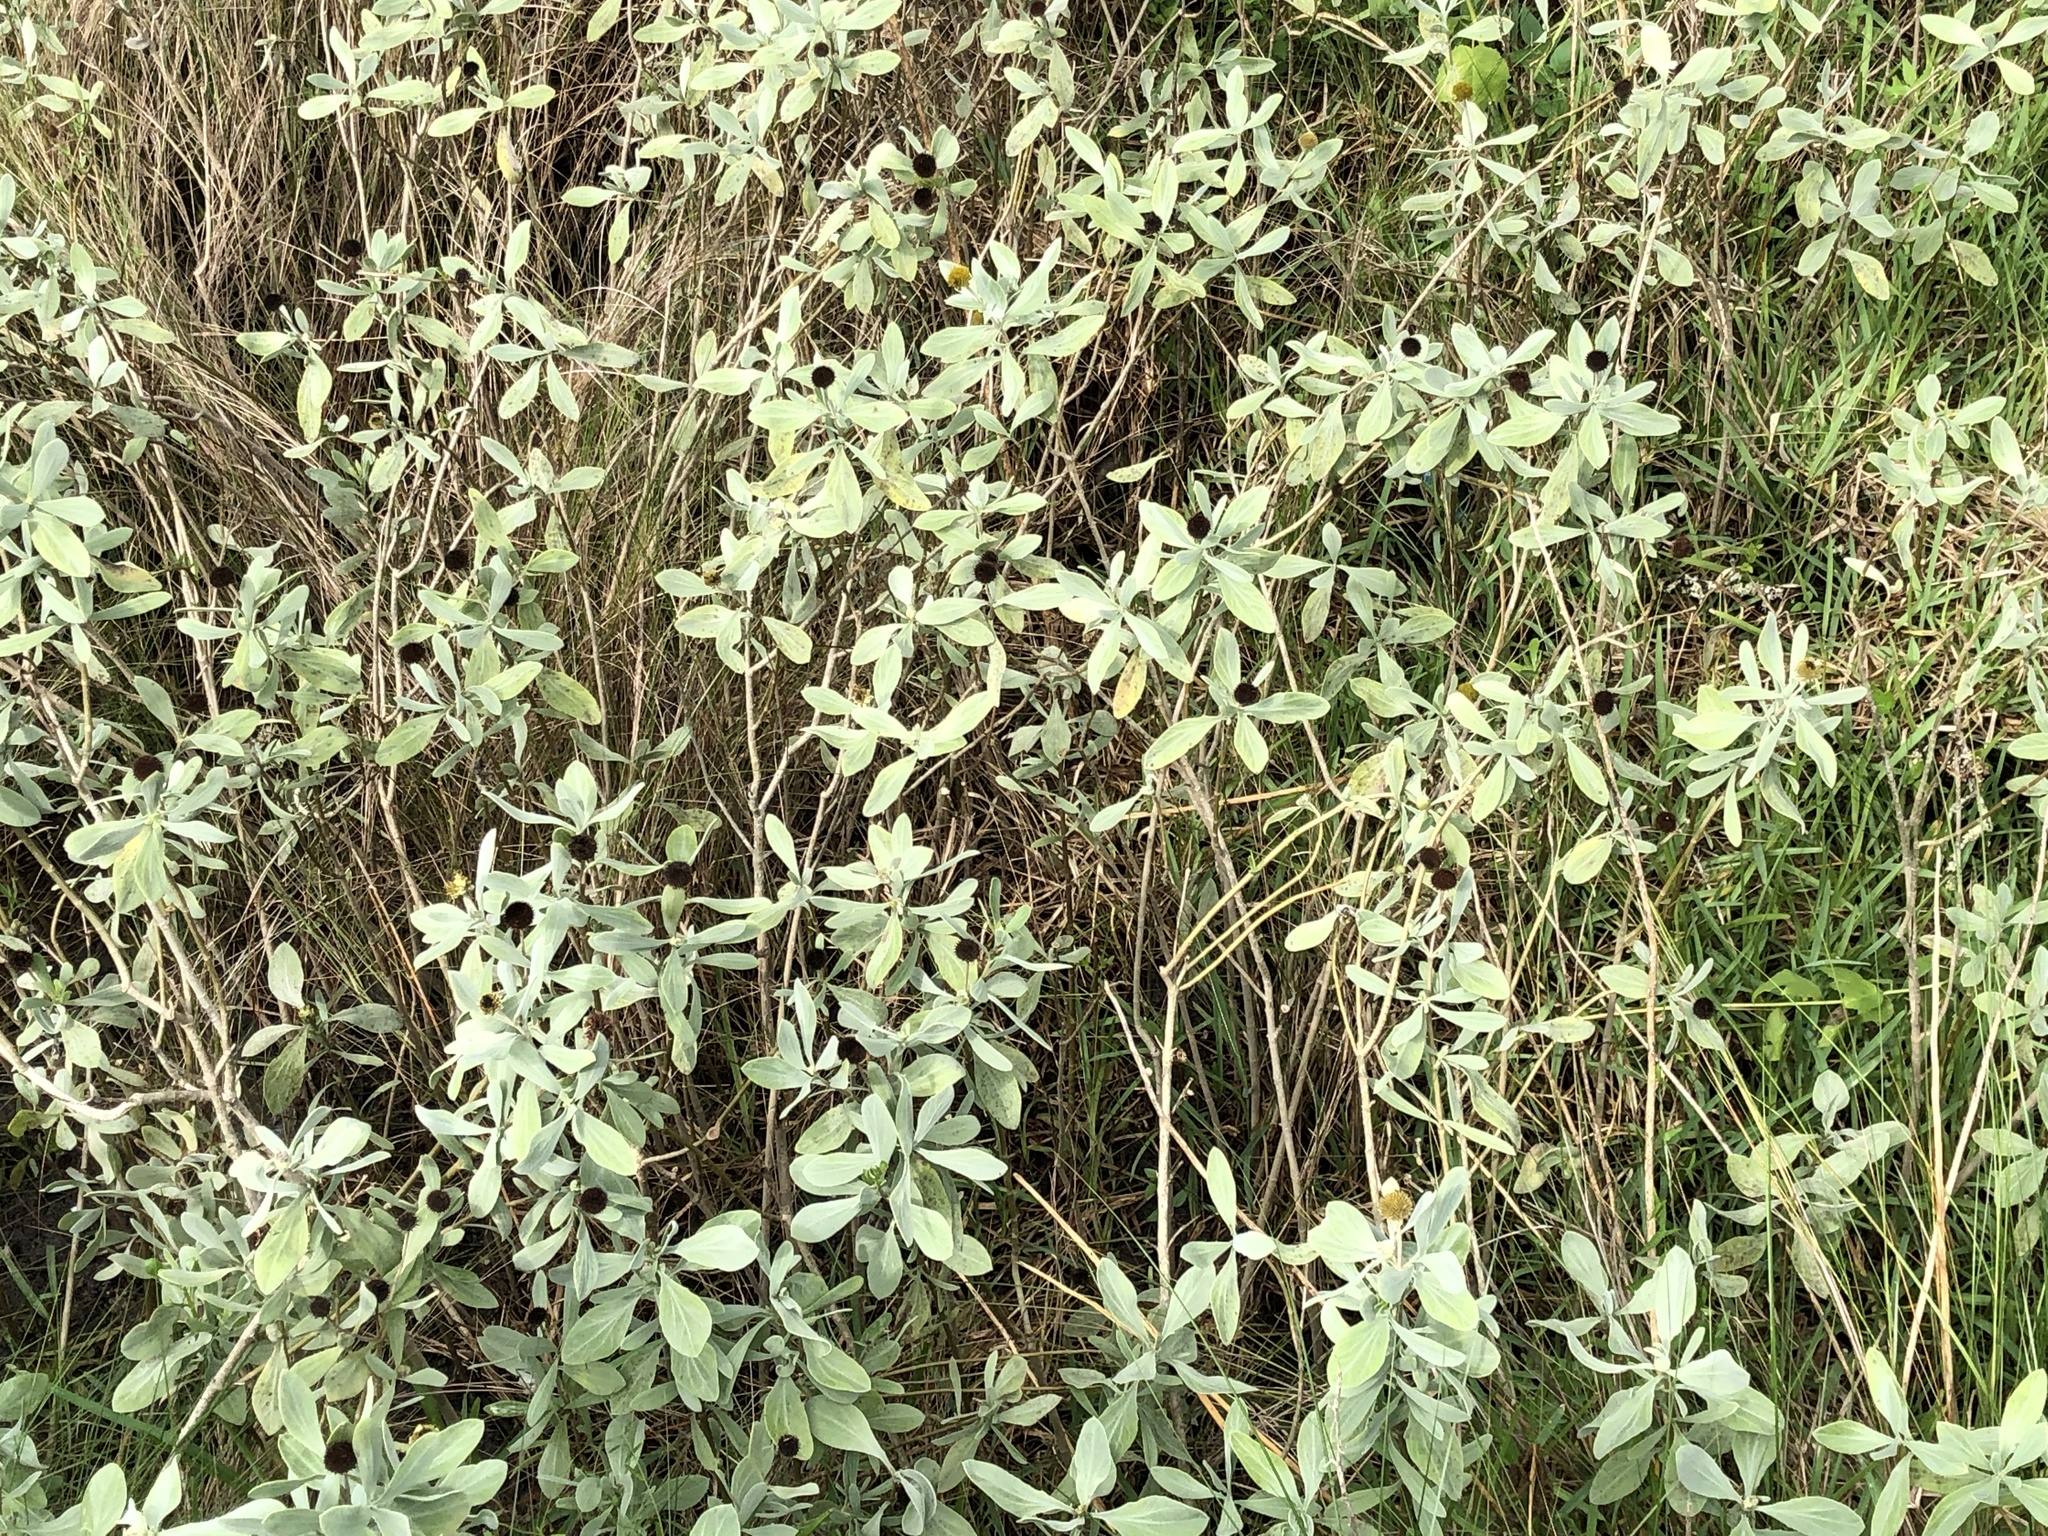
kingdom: Plantae
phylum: Tracheophyta
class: Magnoliopsida
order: Asterales
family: Asteraceae
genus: Borrichia
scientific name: Borrichia frutescens
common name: Sea oxeye
